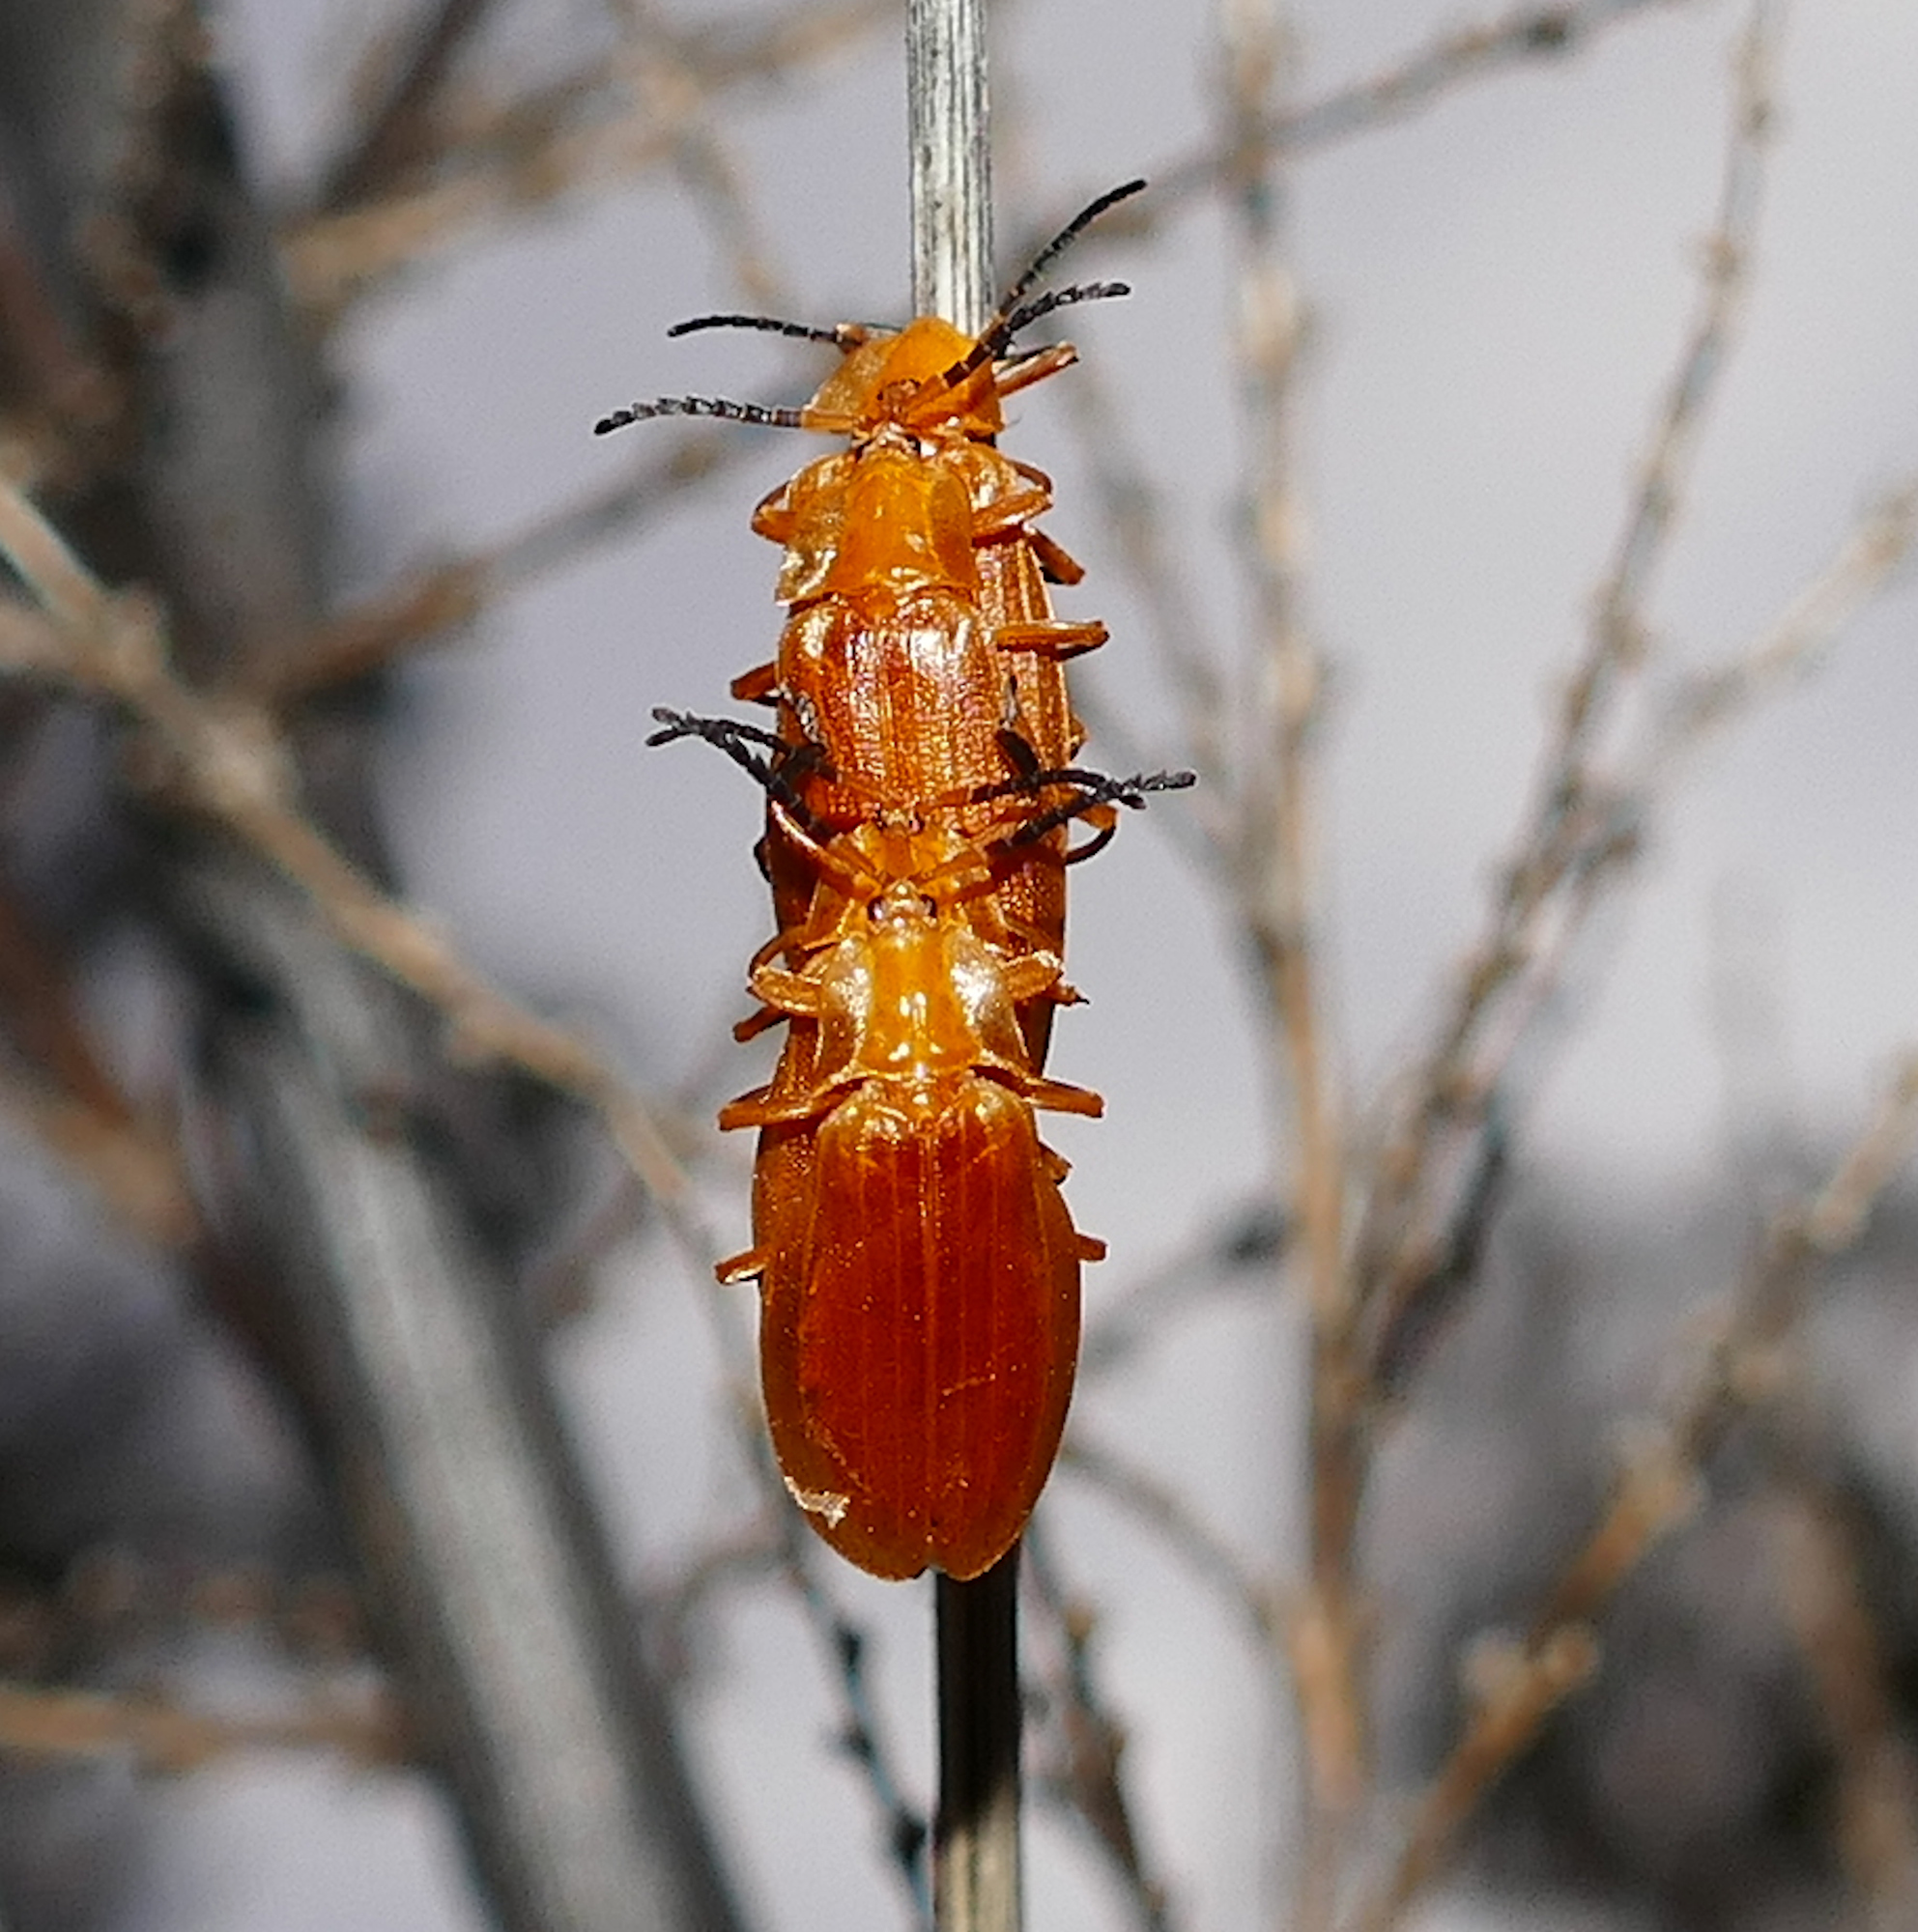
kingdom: Animalia
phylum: Arthropoda
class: Insecta
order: Coleoptera
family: Lycidae
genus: Lycus
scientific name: Lycus loripes
